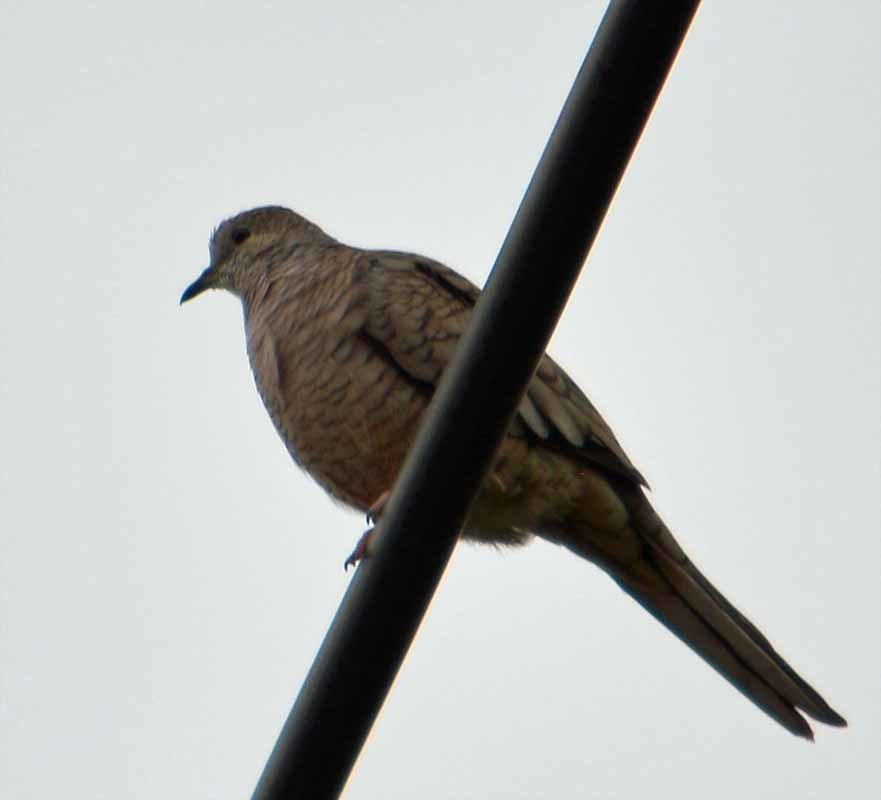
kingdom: Animalia
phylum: Chordata
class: Aves
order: Columbiformes
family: Columbidae
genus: Columbina
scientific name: Columbina inca
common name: Inca dove
